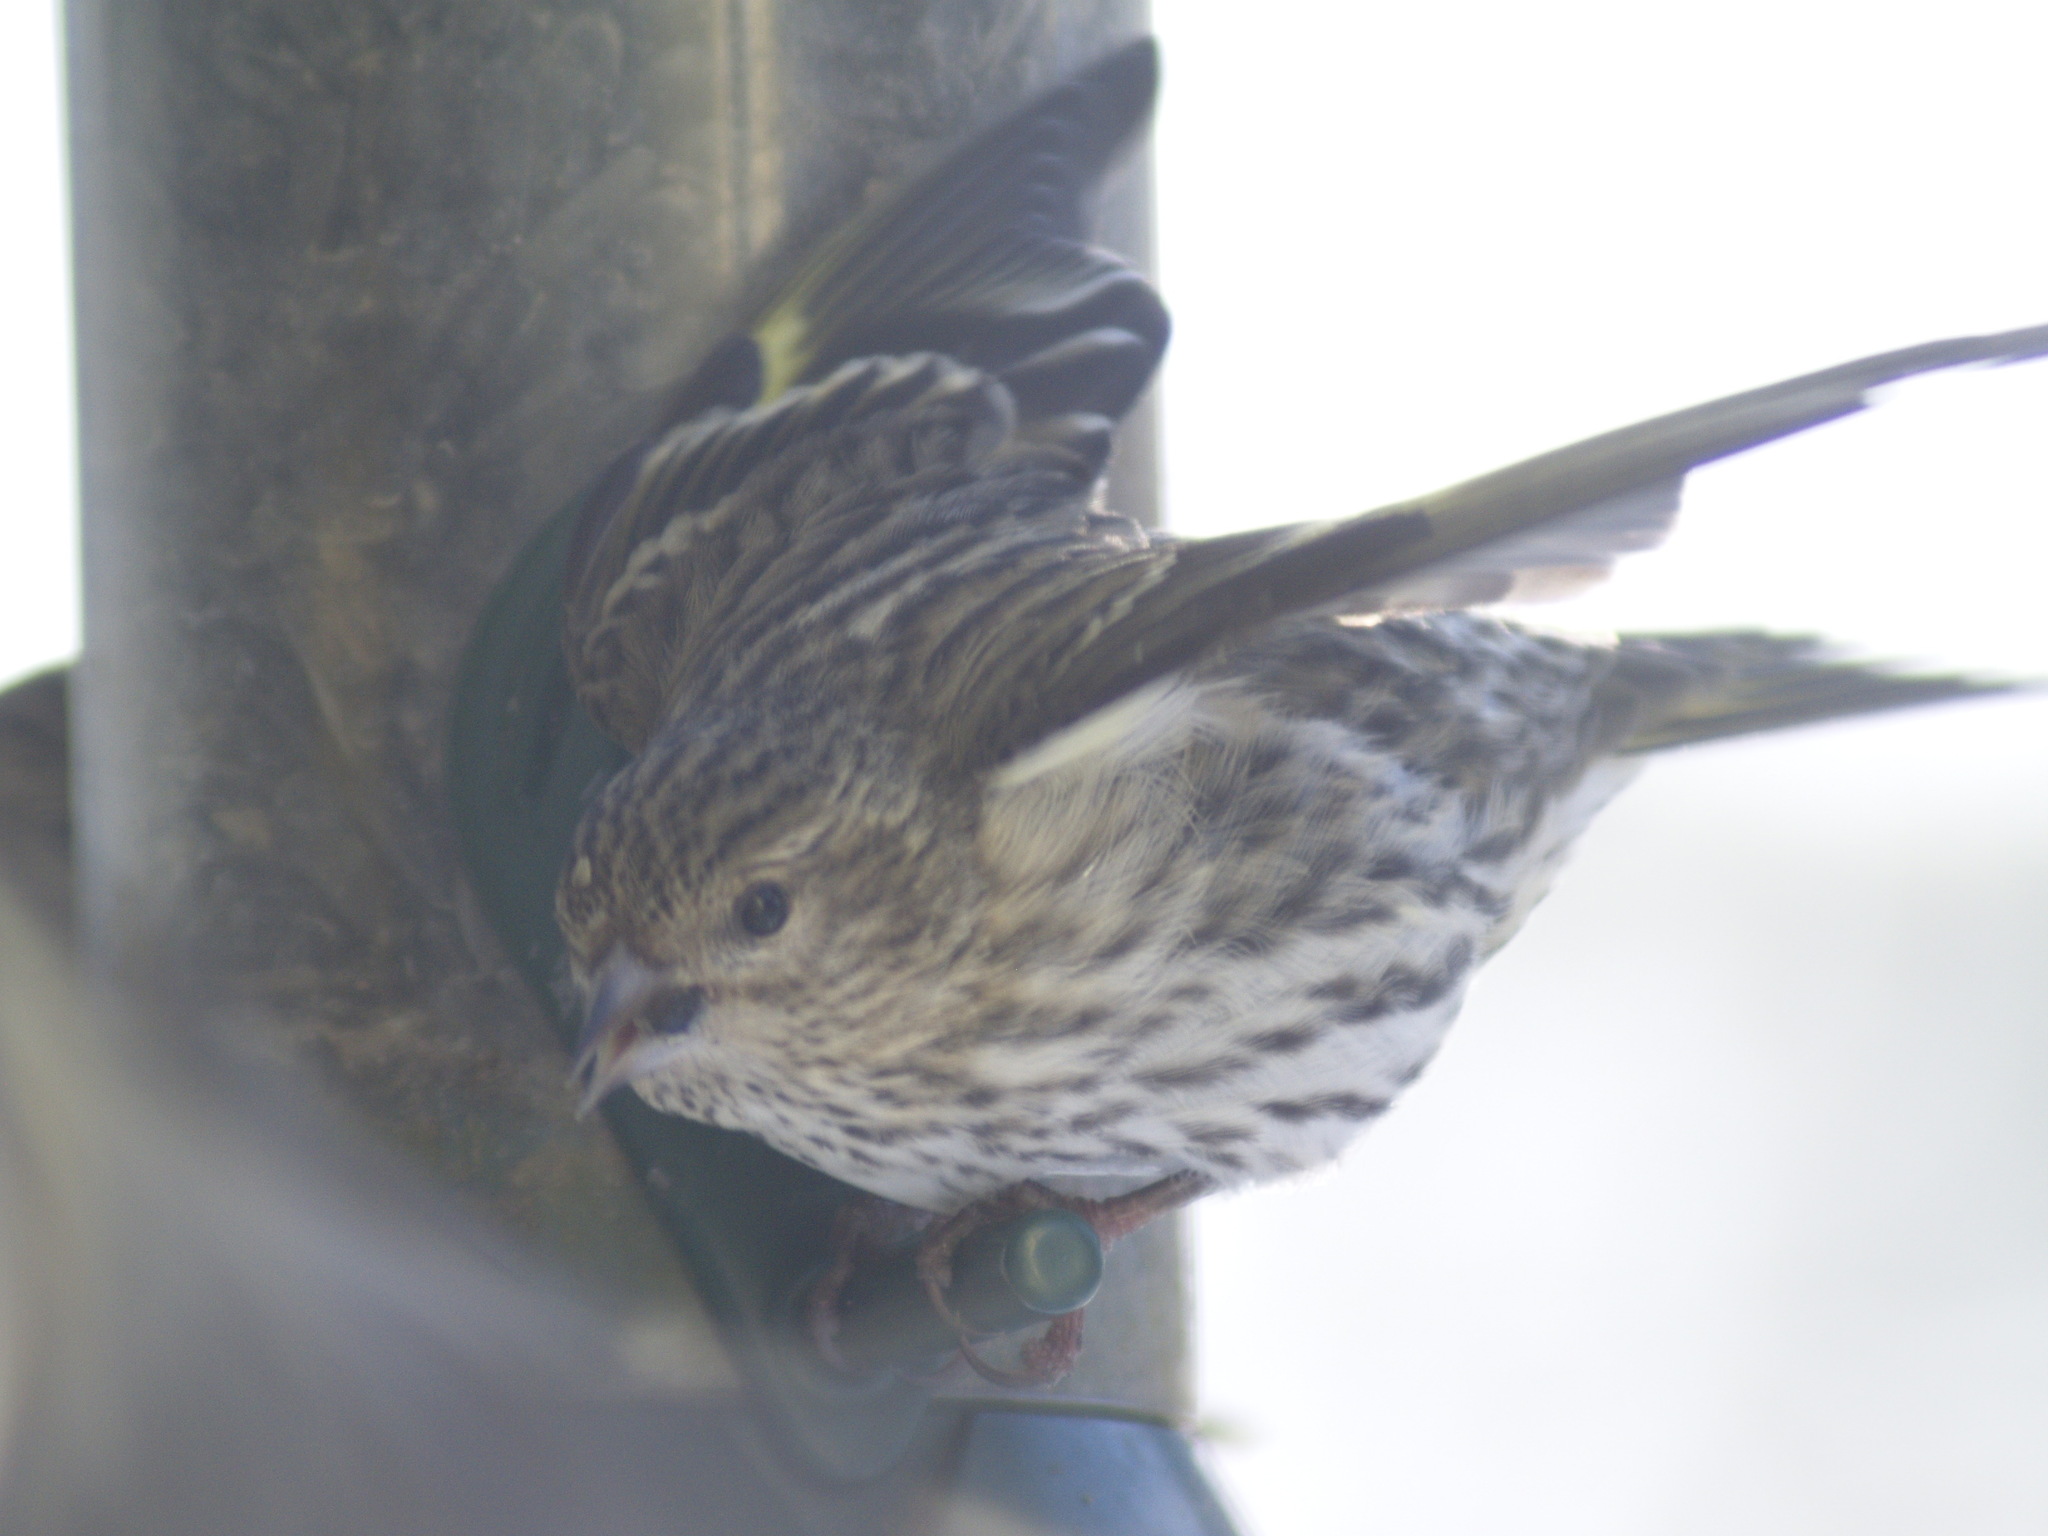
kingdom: Animalia
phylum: Chordata
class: Aves
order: Passeriformes
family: Fringillidae
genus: Spinus
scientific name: Spinus pinus
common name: Pine siskin
